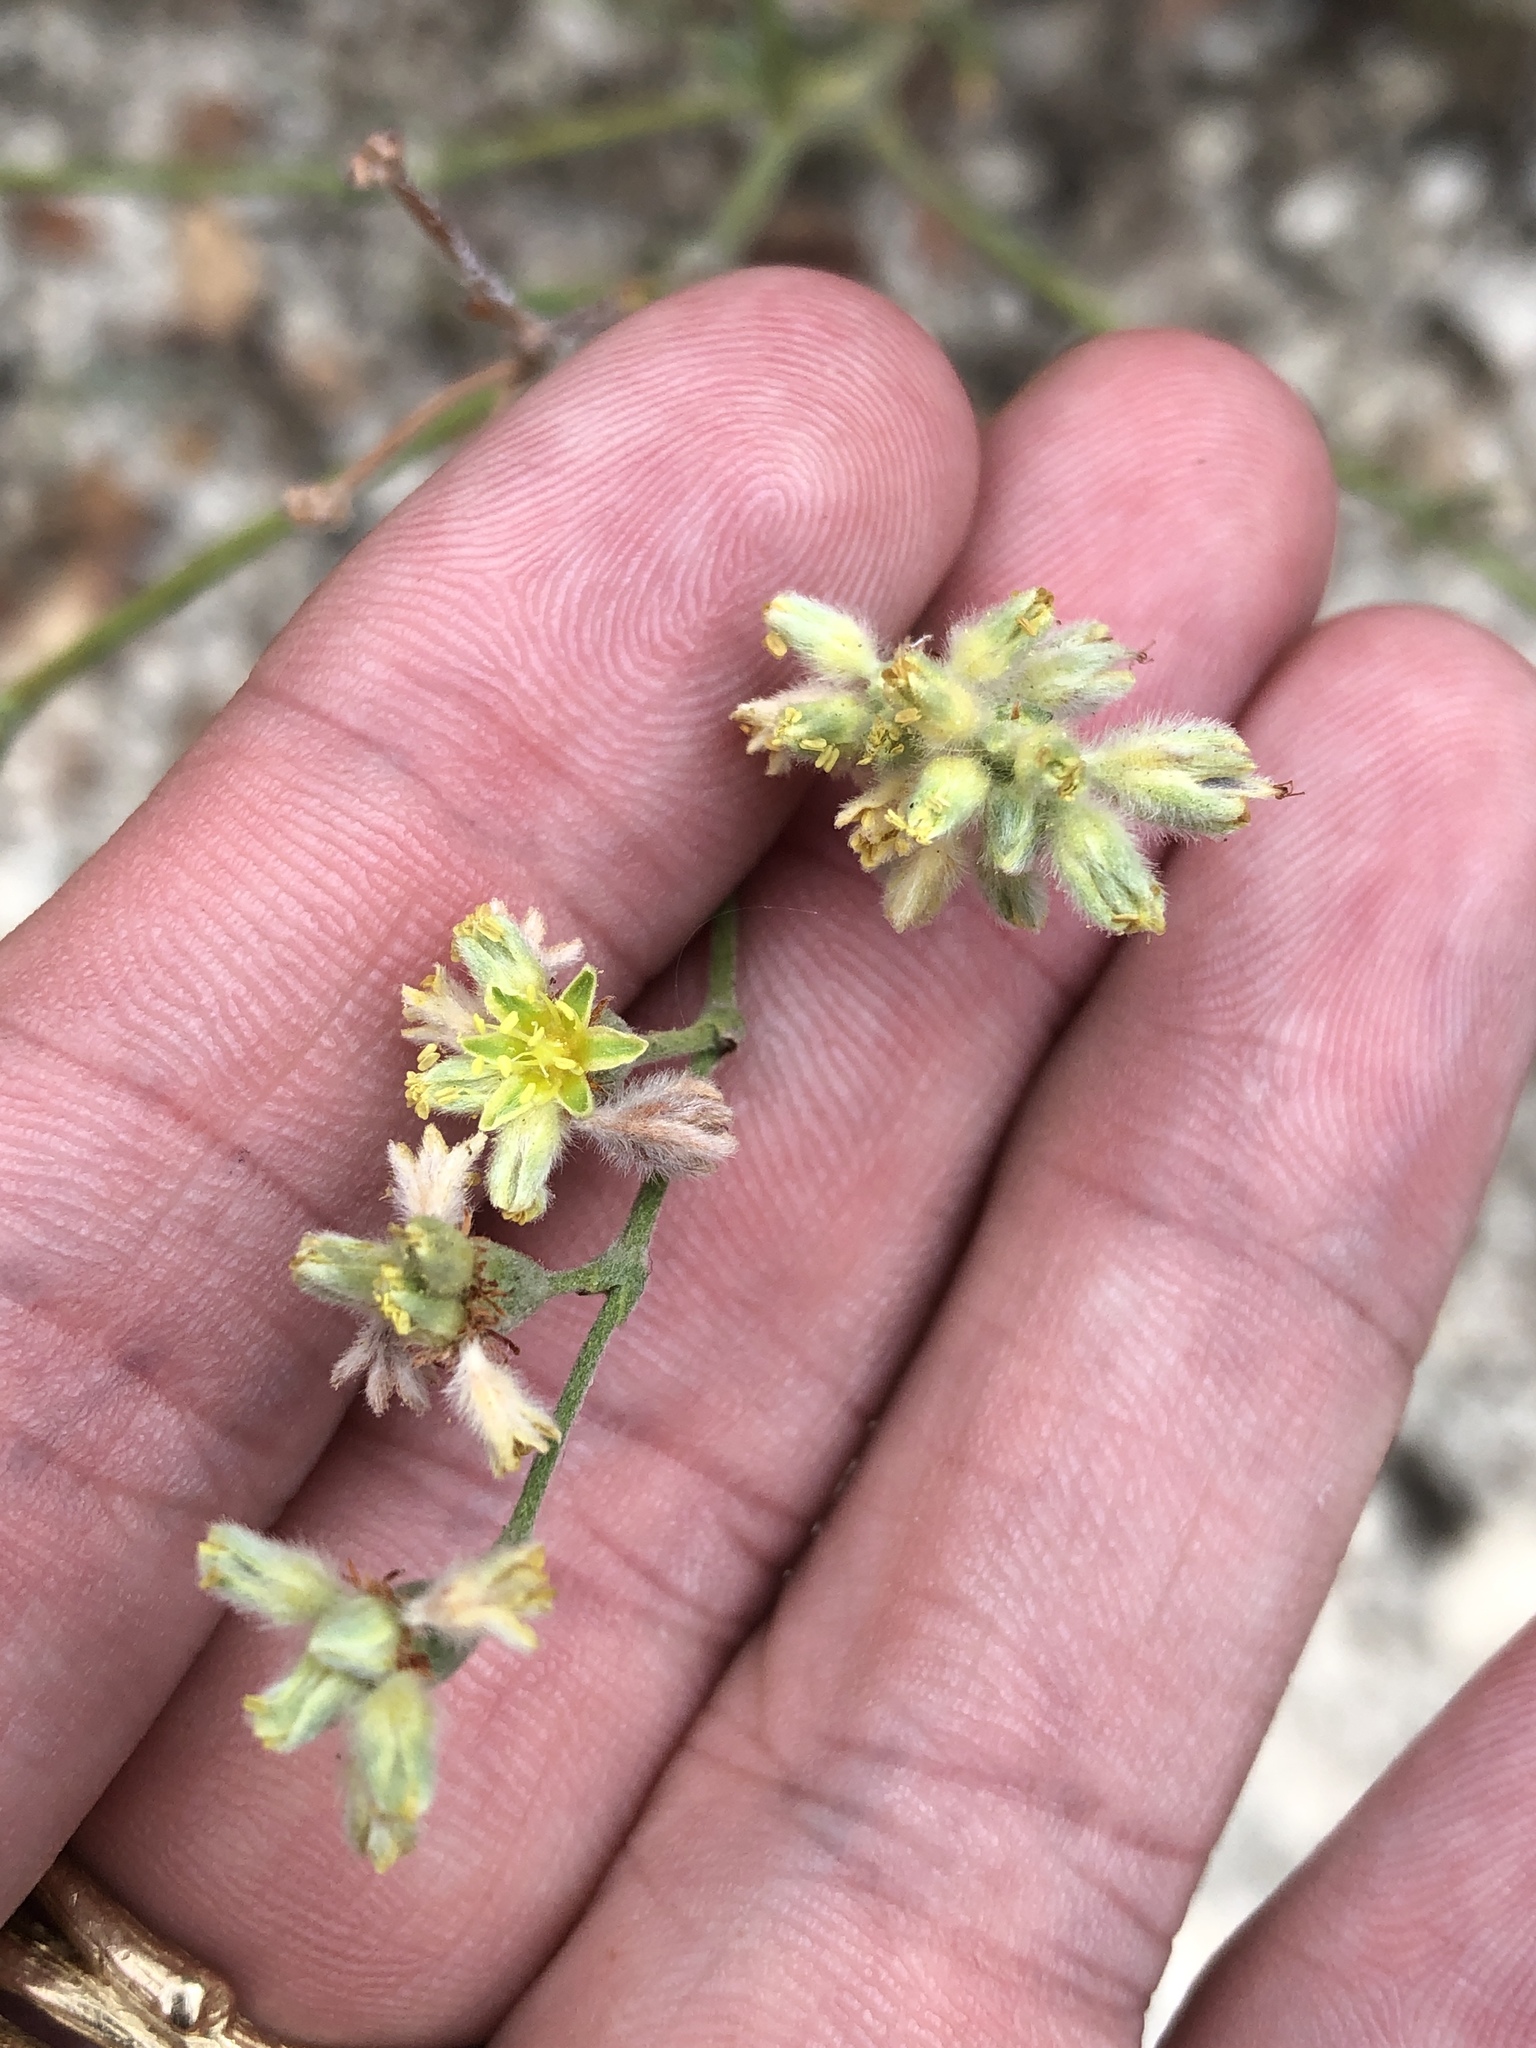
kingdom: Plantae
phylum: Tracheophyta
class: Magnoliopsida
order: Caryophyllales
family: Polygonaceae
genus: Eriogonum
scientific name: Eriogonum longifolium
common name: Longleaf wild buckwheat
